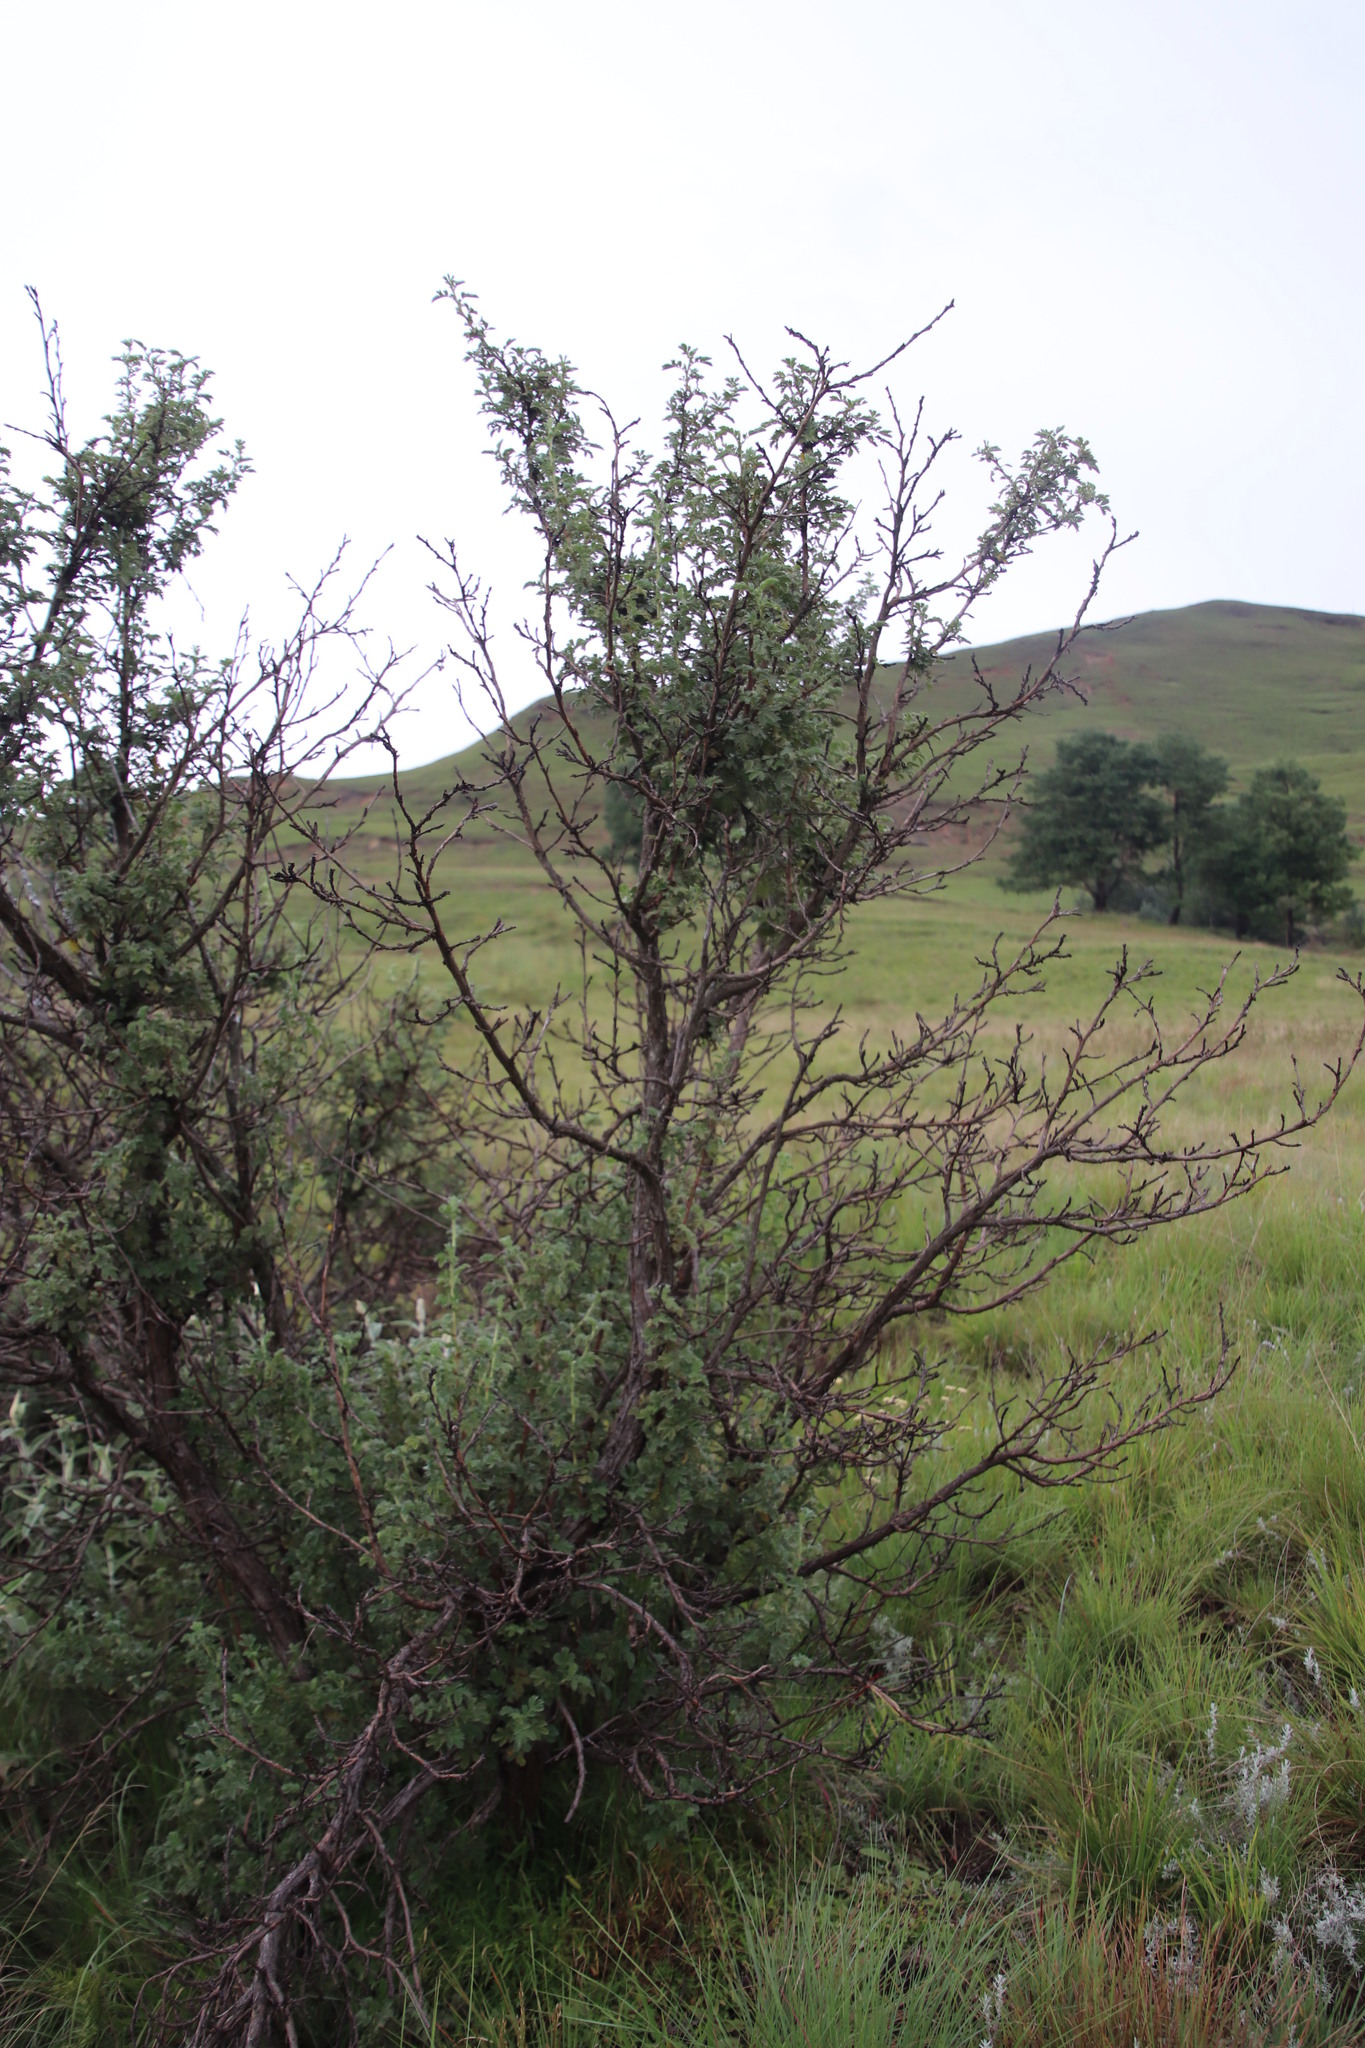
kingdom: Plantae
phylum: Tracheophyta
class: Magnoliopsida
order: Rosales
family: Rosaceae
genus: Leucosidea
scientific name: Leucosidea sericea
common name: Oldwood
